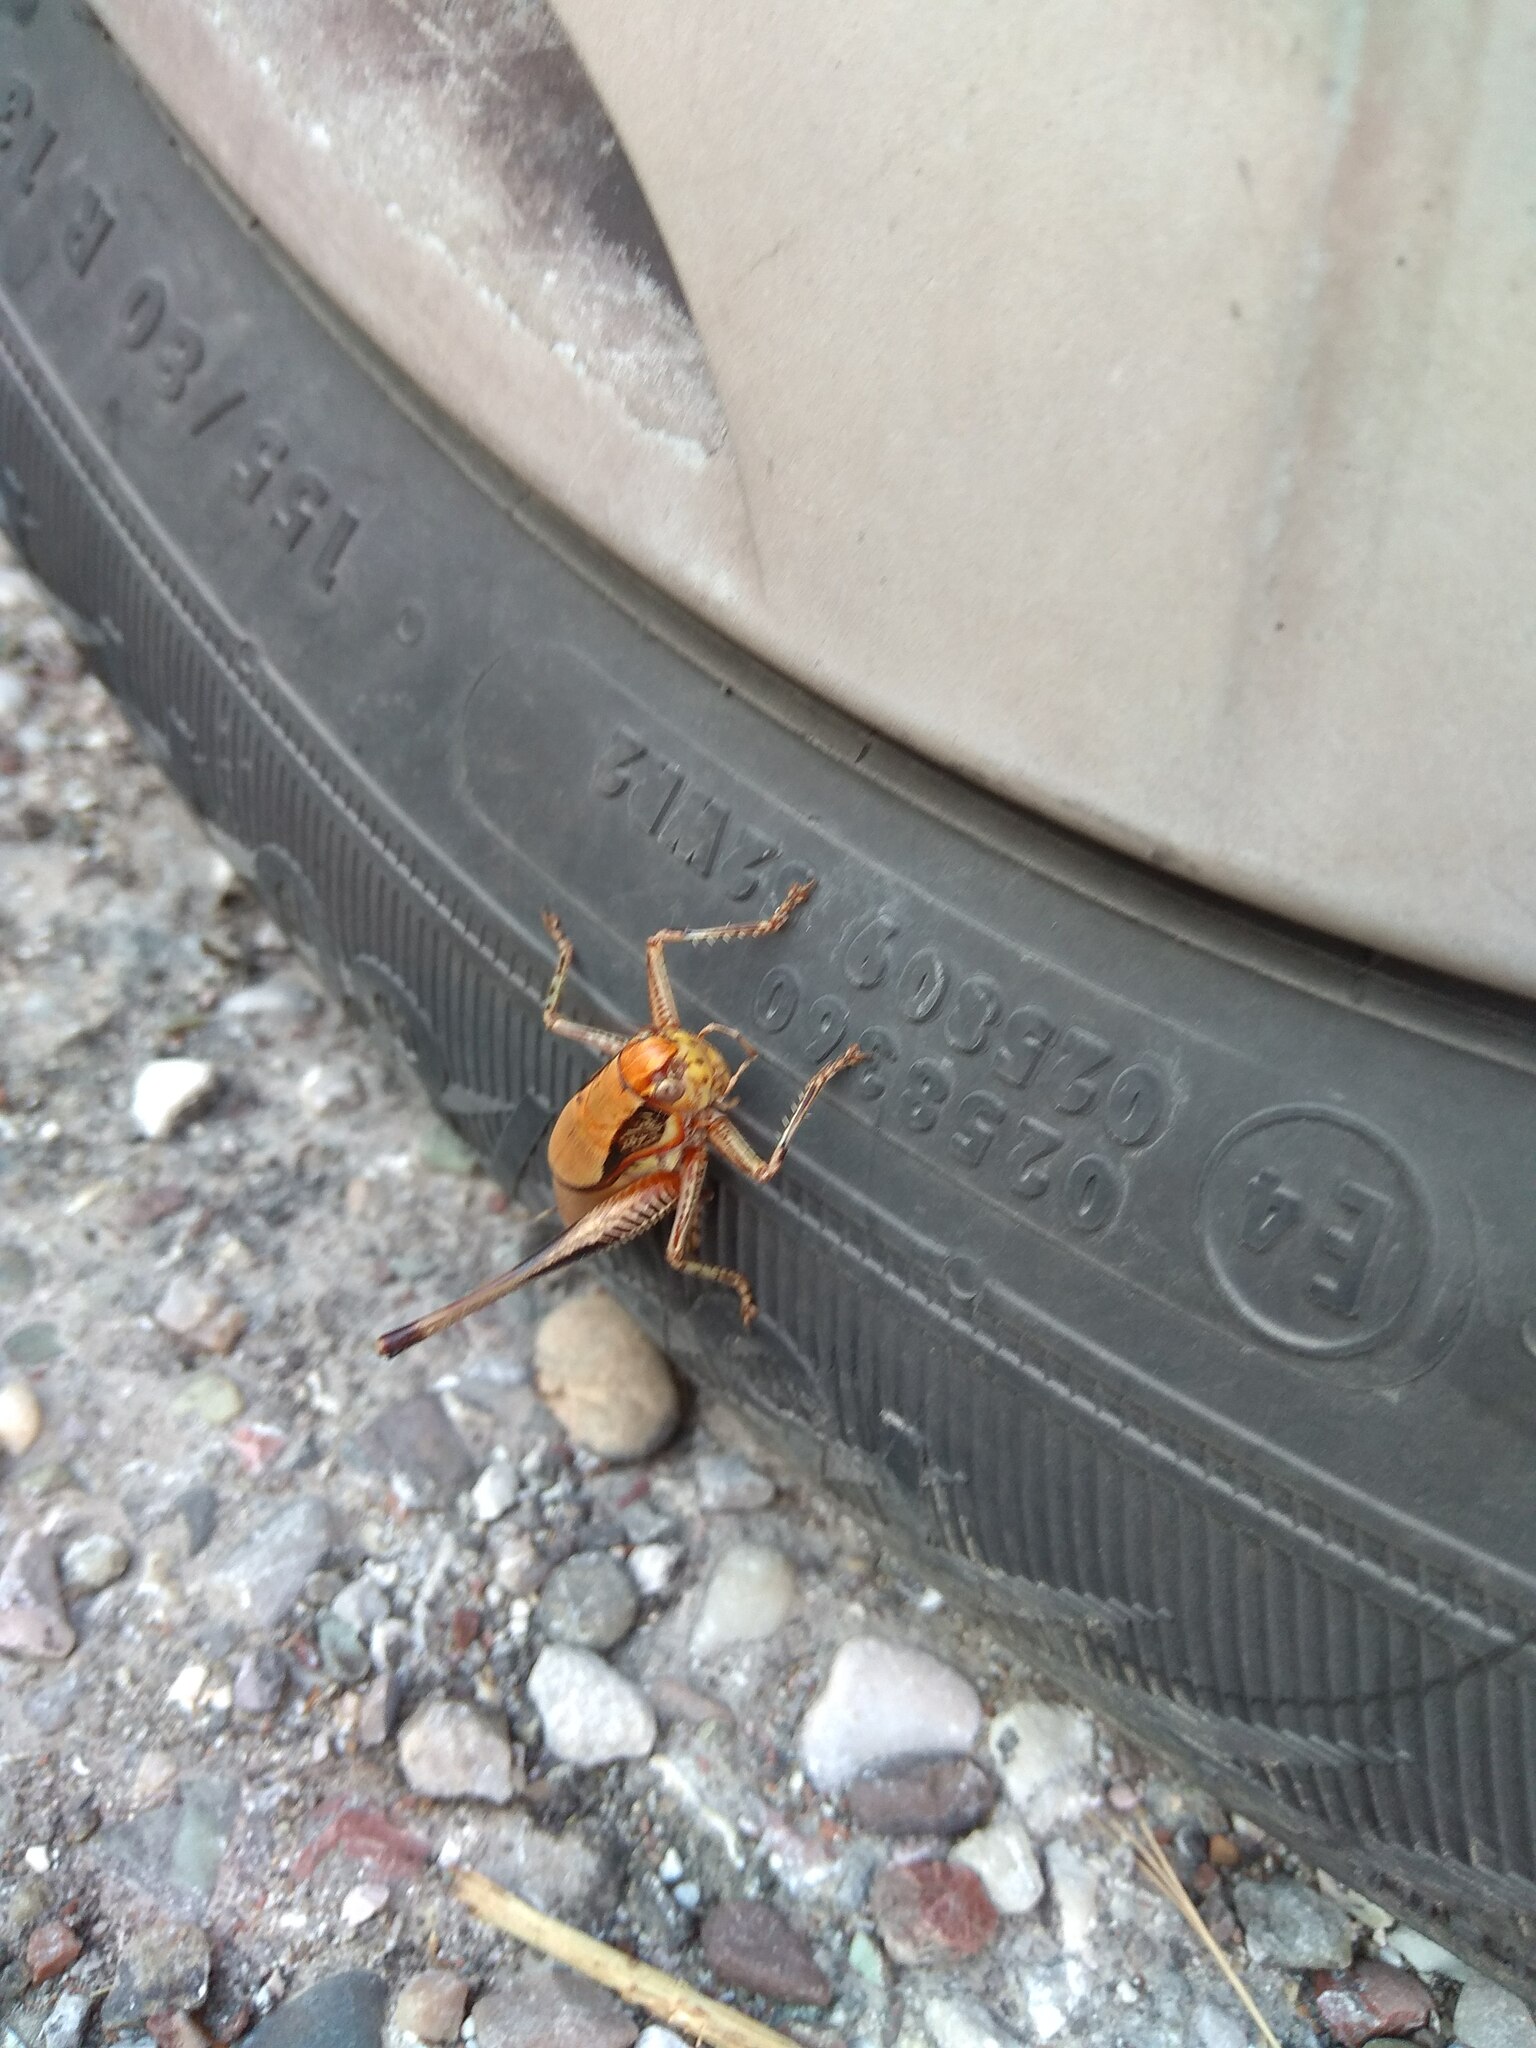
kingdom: Animalia
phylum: Arthropoda
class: Insecta
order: Orthoptera
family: Tettigoniidae
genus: Eupholidoptera
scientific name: Eupholidoptera megastyla
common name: Greek marbled bush-cricket
